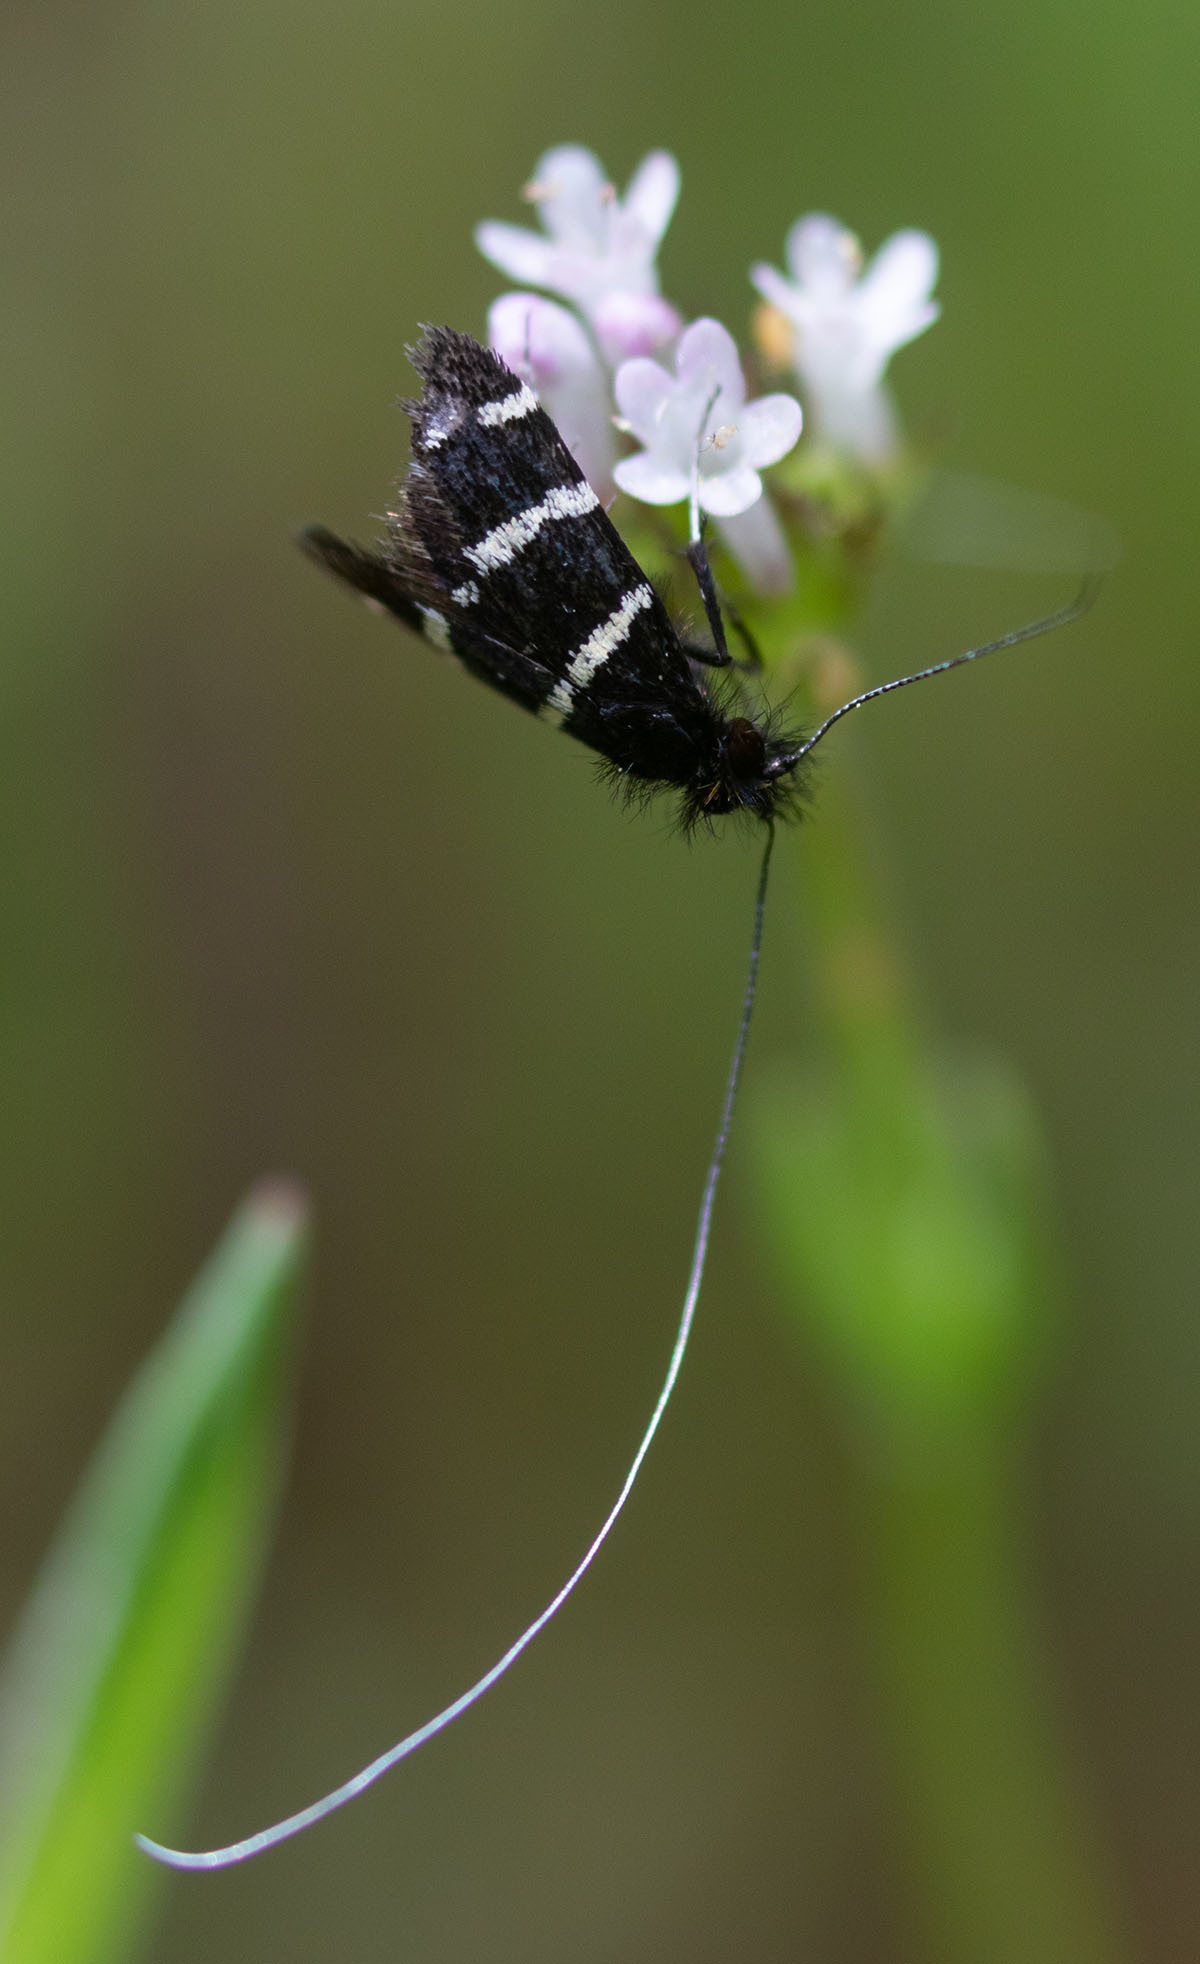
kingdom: Animalia
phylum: Arthropoda
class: Insecta
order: Lepidoptera
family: Adelidae
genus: Adela
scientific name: Adela trigrapha
